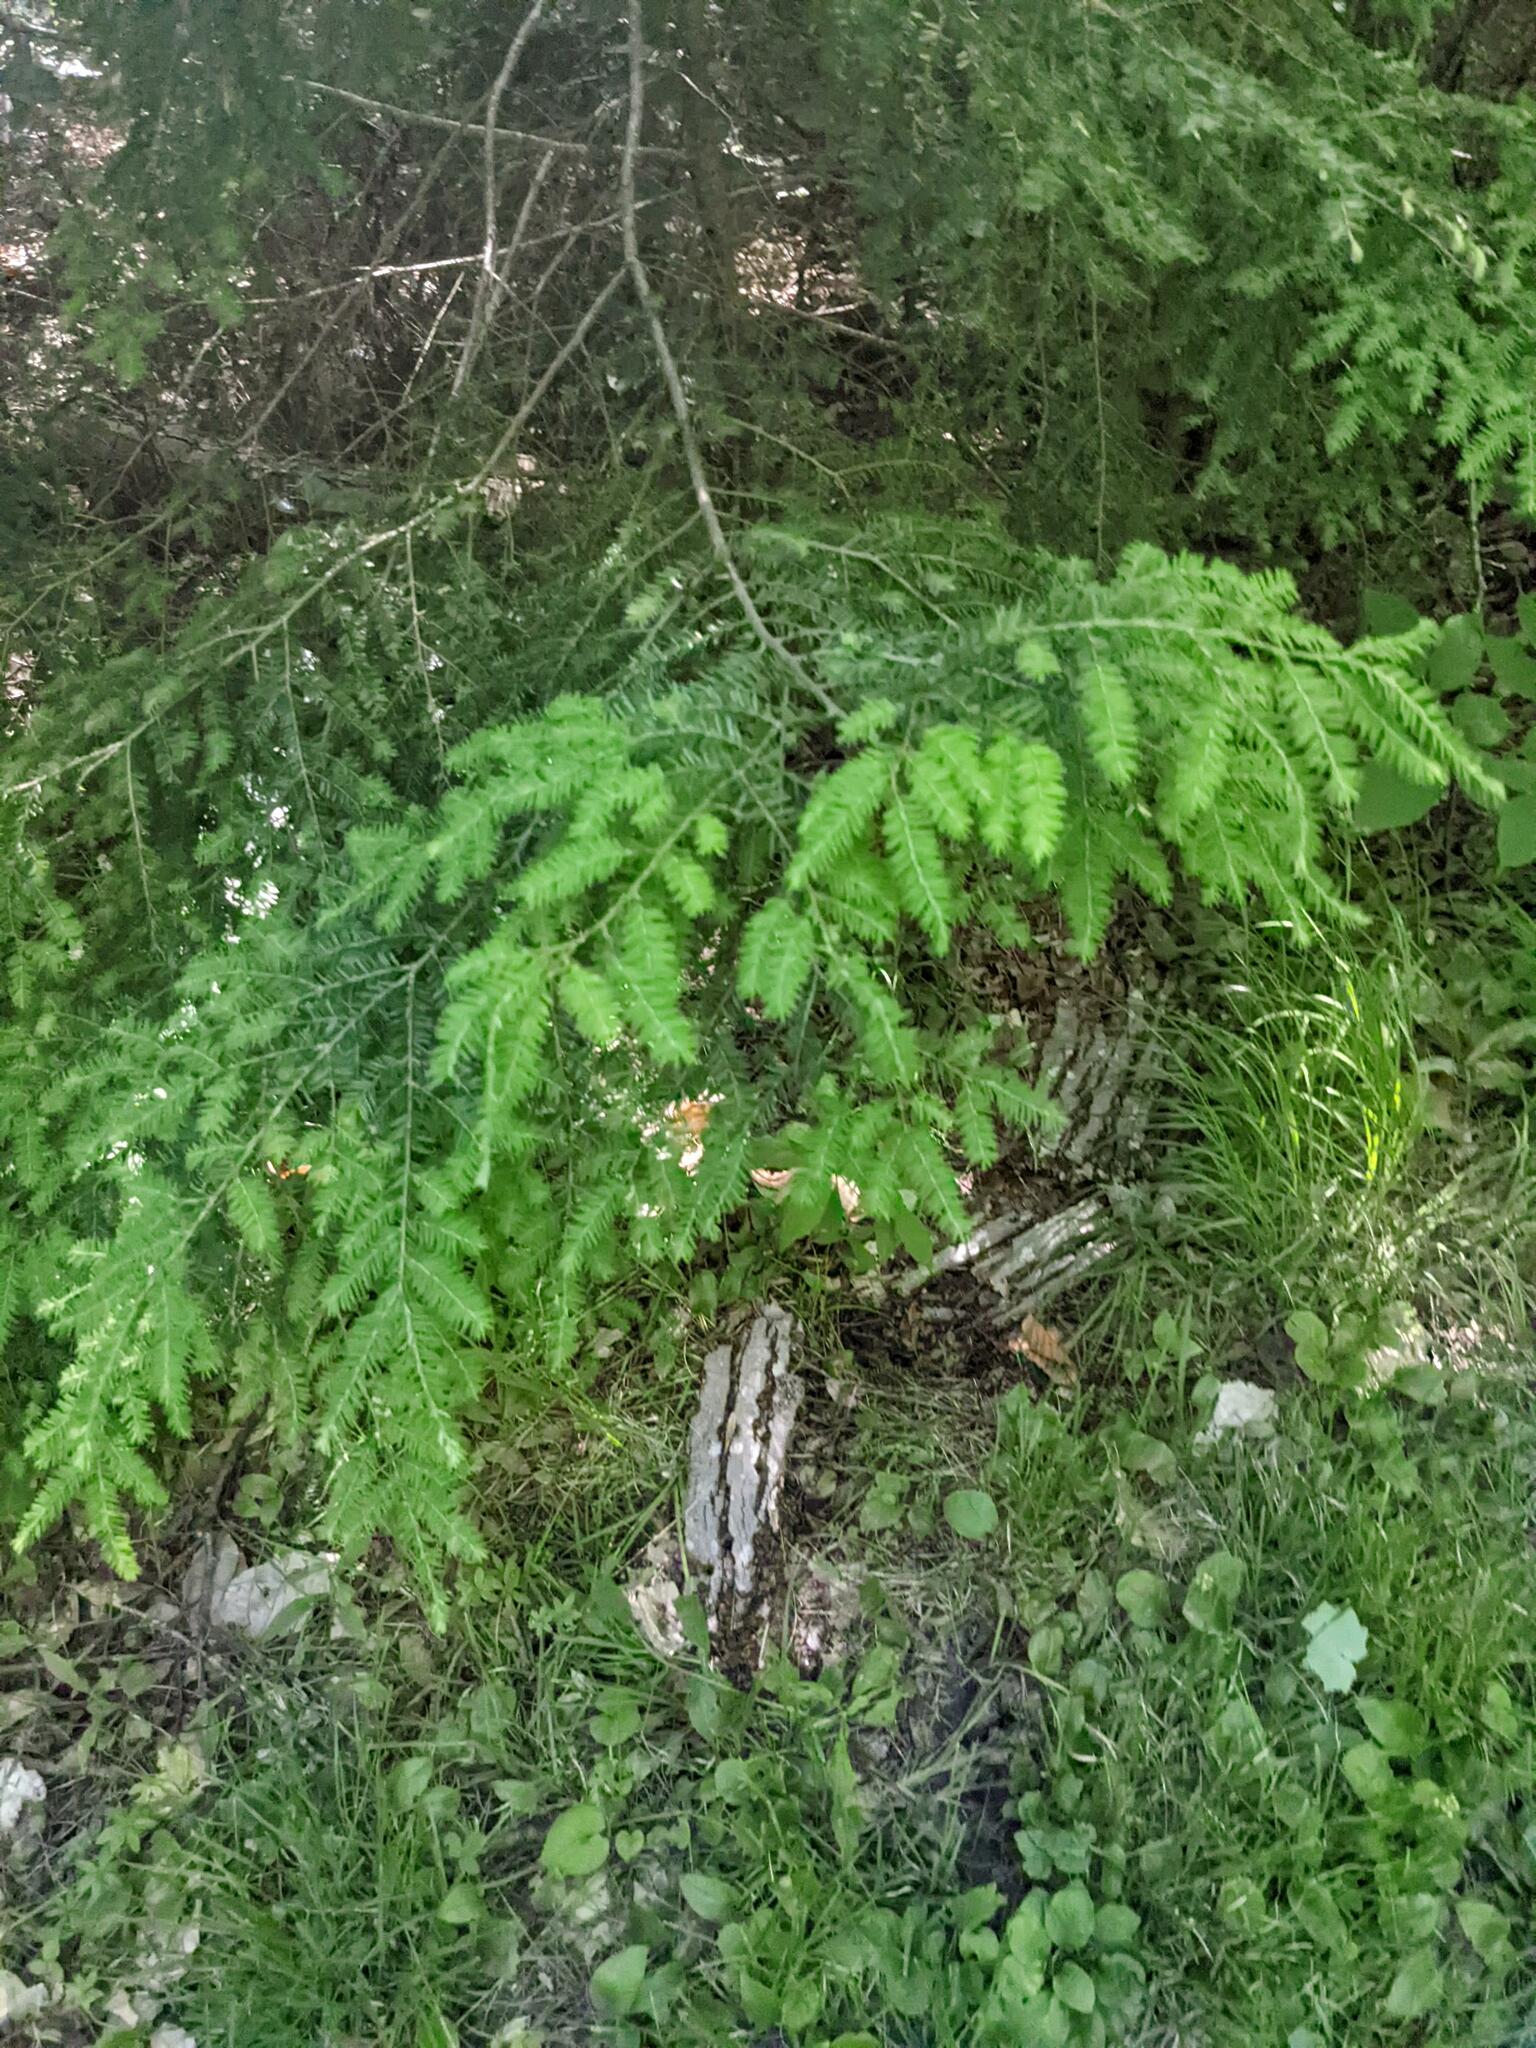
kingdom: Plantae
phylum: Tracheophyta
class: Pinopsida
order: Pinales
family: Pinaceae
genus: Tsuga
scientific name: Tsuga canadensis
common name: Eastern hemlock
